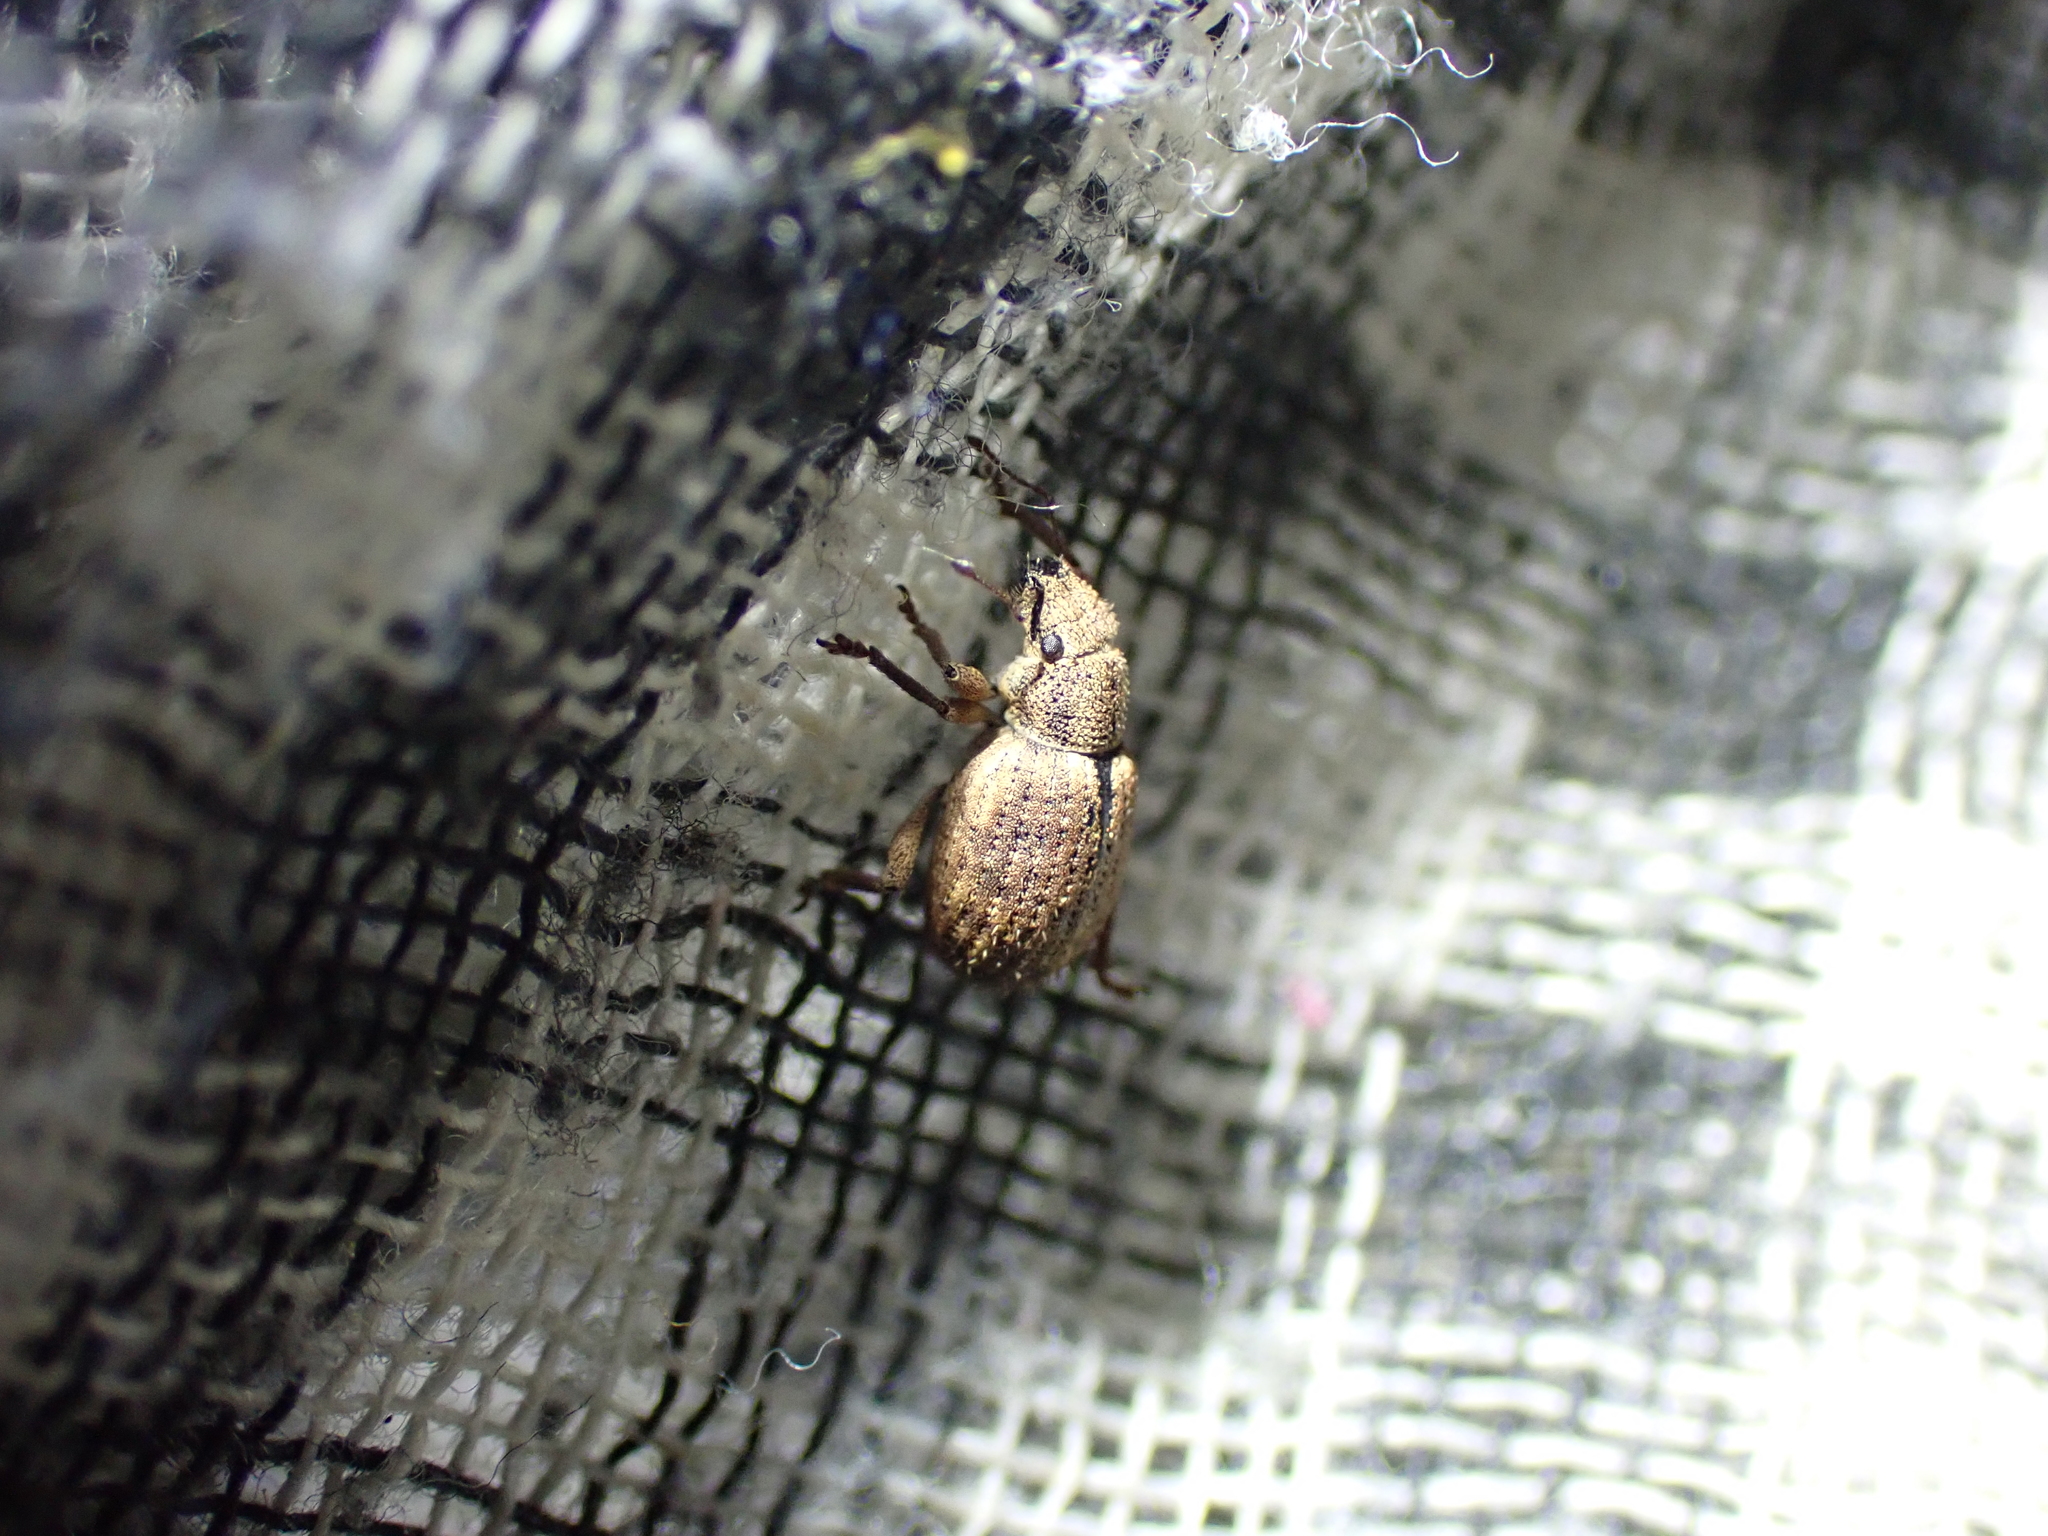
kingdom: Animalia
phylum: Arthropoda
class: Insecta
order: Coleoptera
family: Curculionidae
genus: Strophosoma
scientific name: Strophosoma melanogrammum
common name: Weevil
